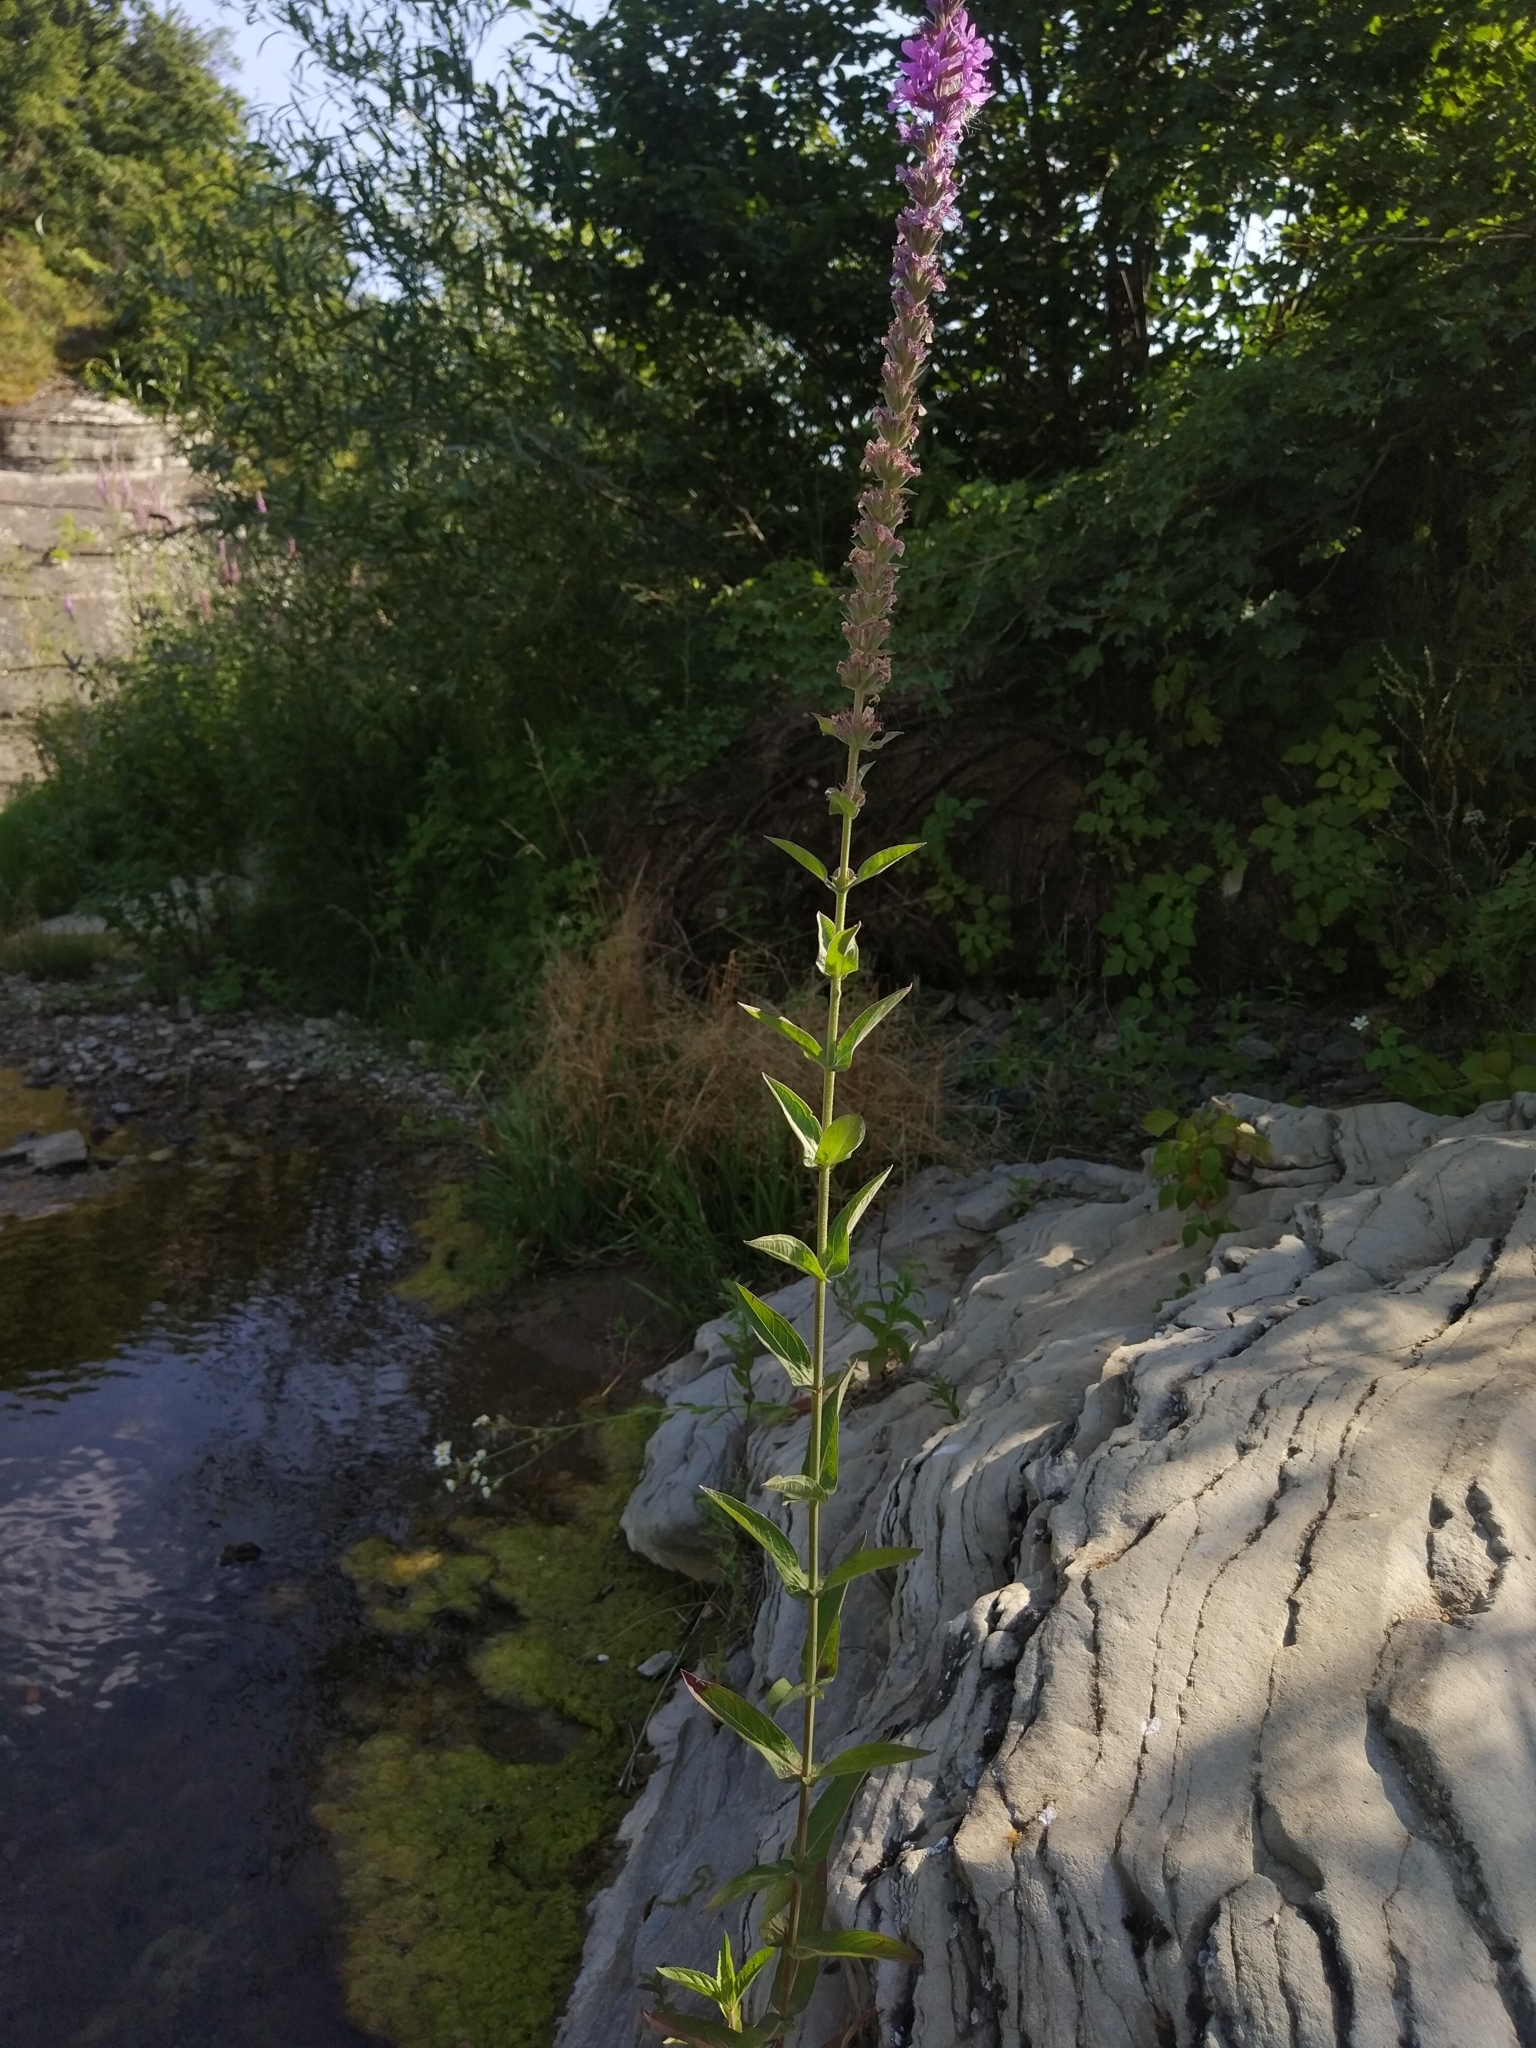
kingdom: Plantae
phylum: Tracheophyta
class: Magnoliopsida
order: Myrtales
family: Lythraceae
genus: Lythrum
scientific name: Lythrum salicaria
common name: Purple loosestrife
